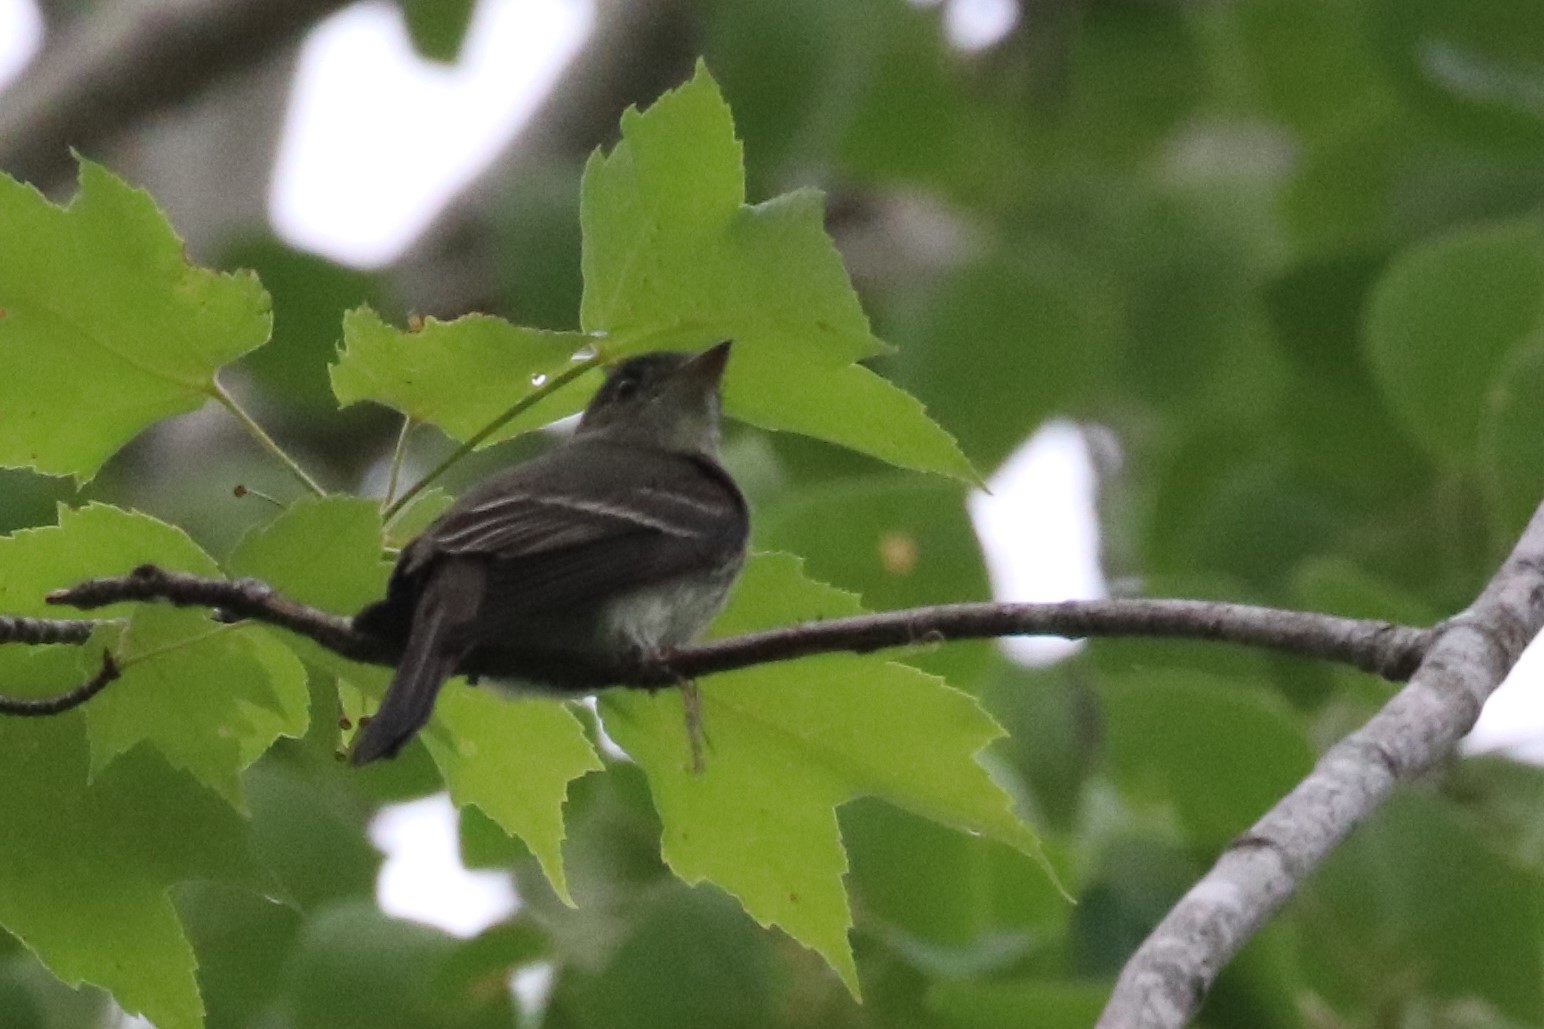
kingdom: Animalia
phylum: Chordata
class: Aves
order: Passeriformes
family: Tyrannidae
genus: Contopus
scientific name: Contopus virens
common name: Eastern wood-pewee
